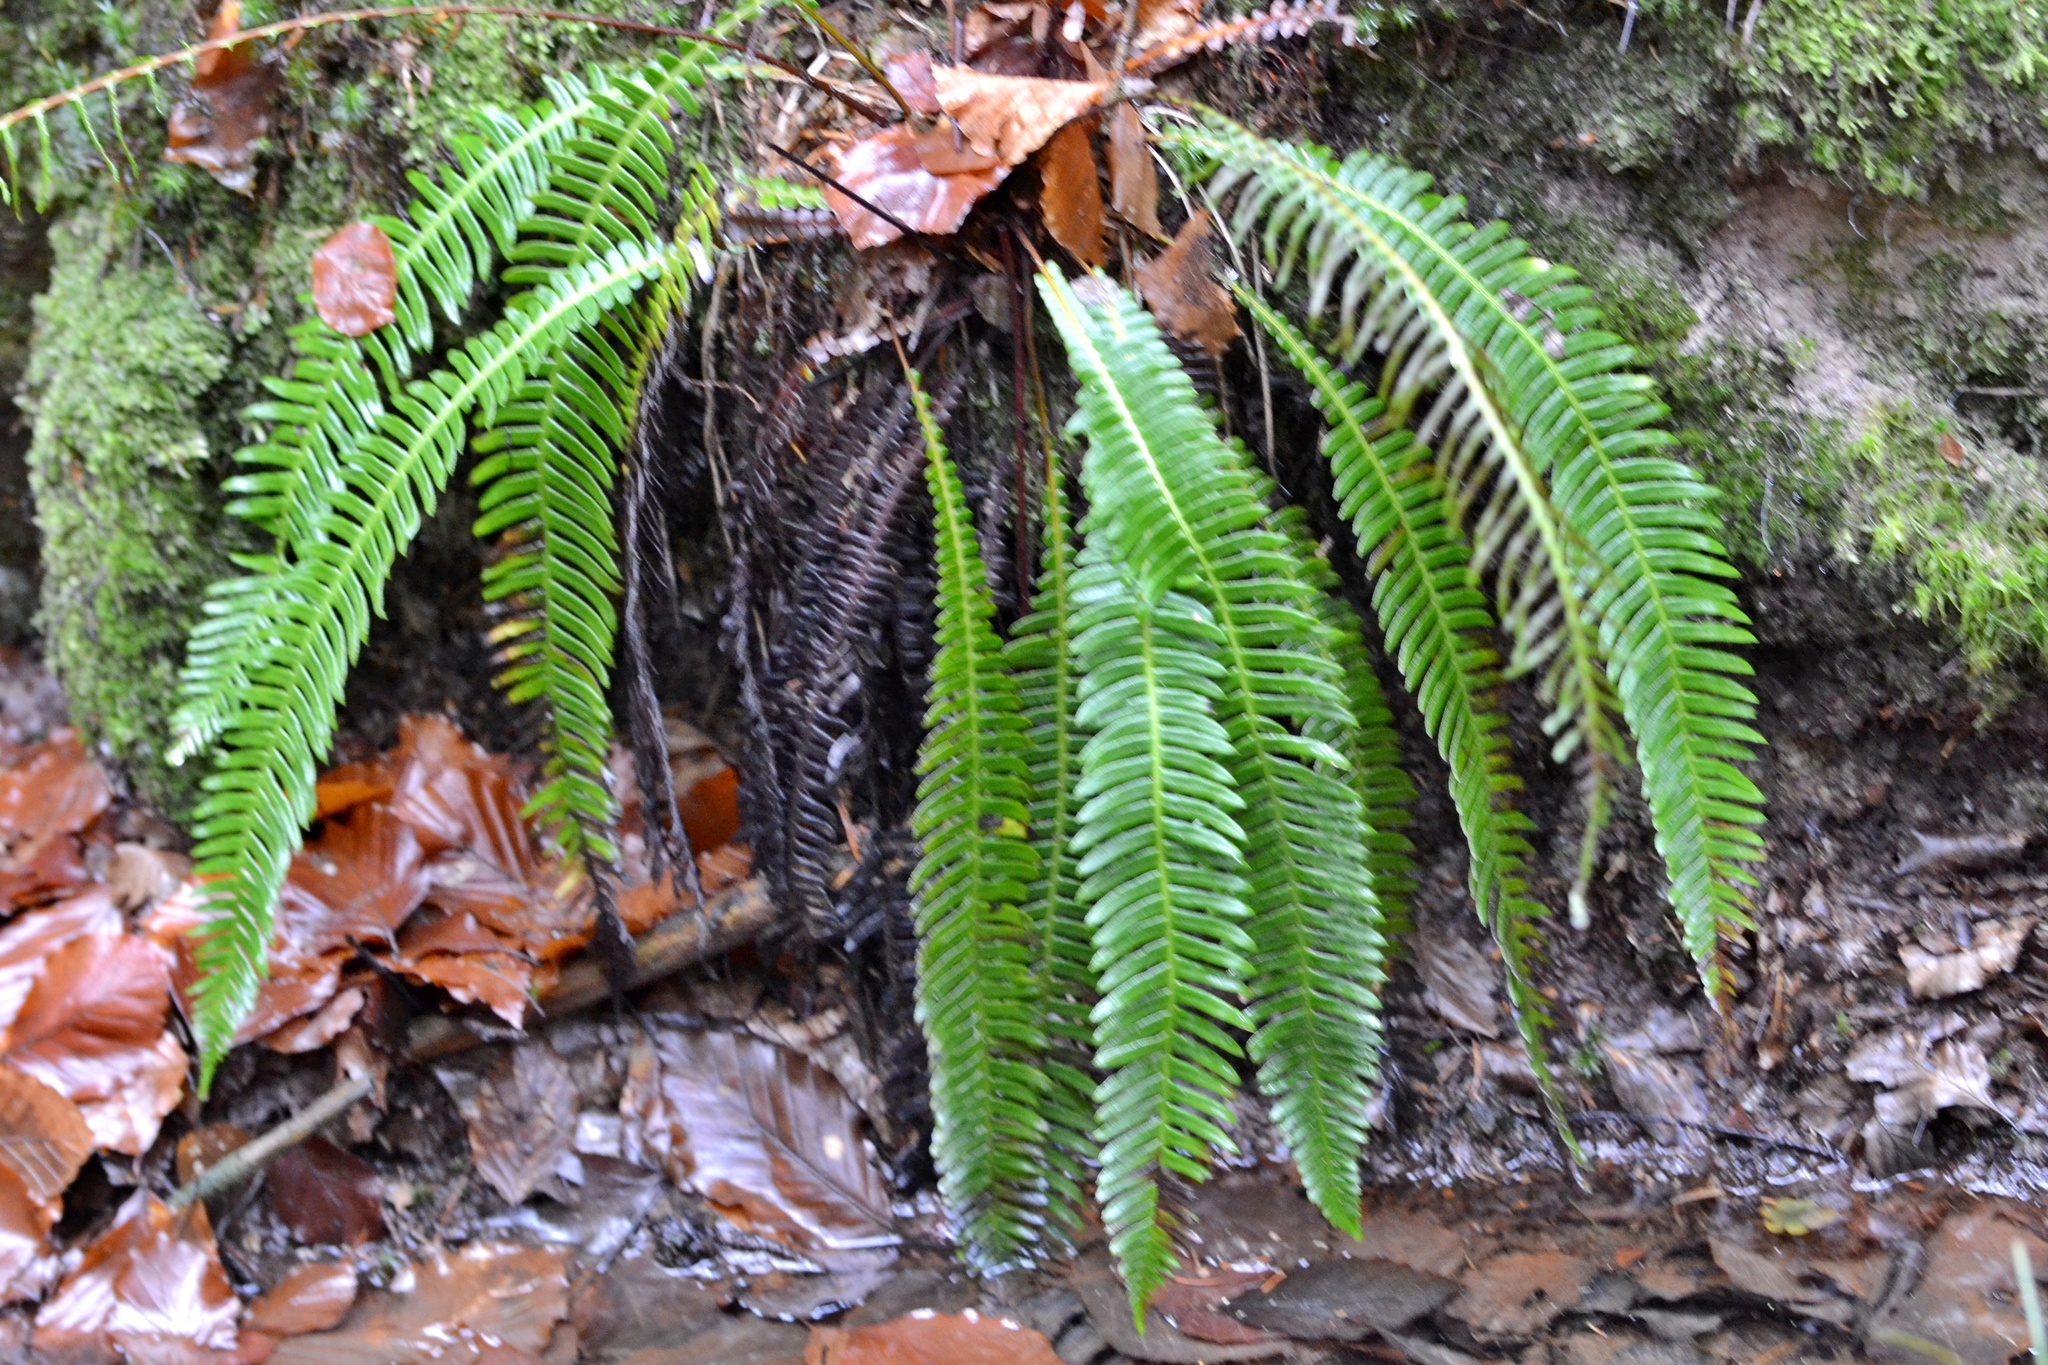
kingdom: Plantae
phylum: Tracheophyta
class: Polypodiopsida
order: Polypodiales
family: Blechnaceae
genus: Struthiopteris
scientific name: Struthiopteris spicant
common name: Deer fern
